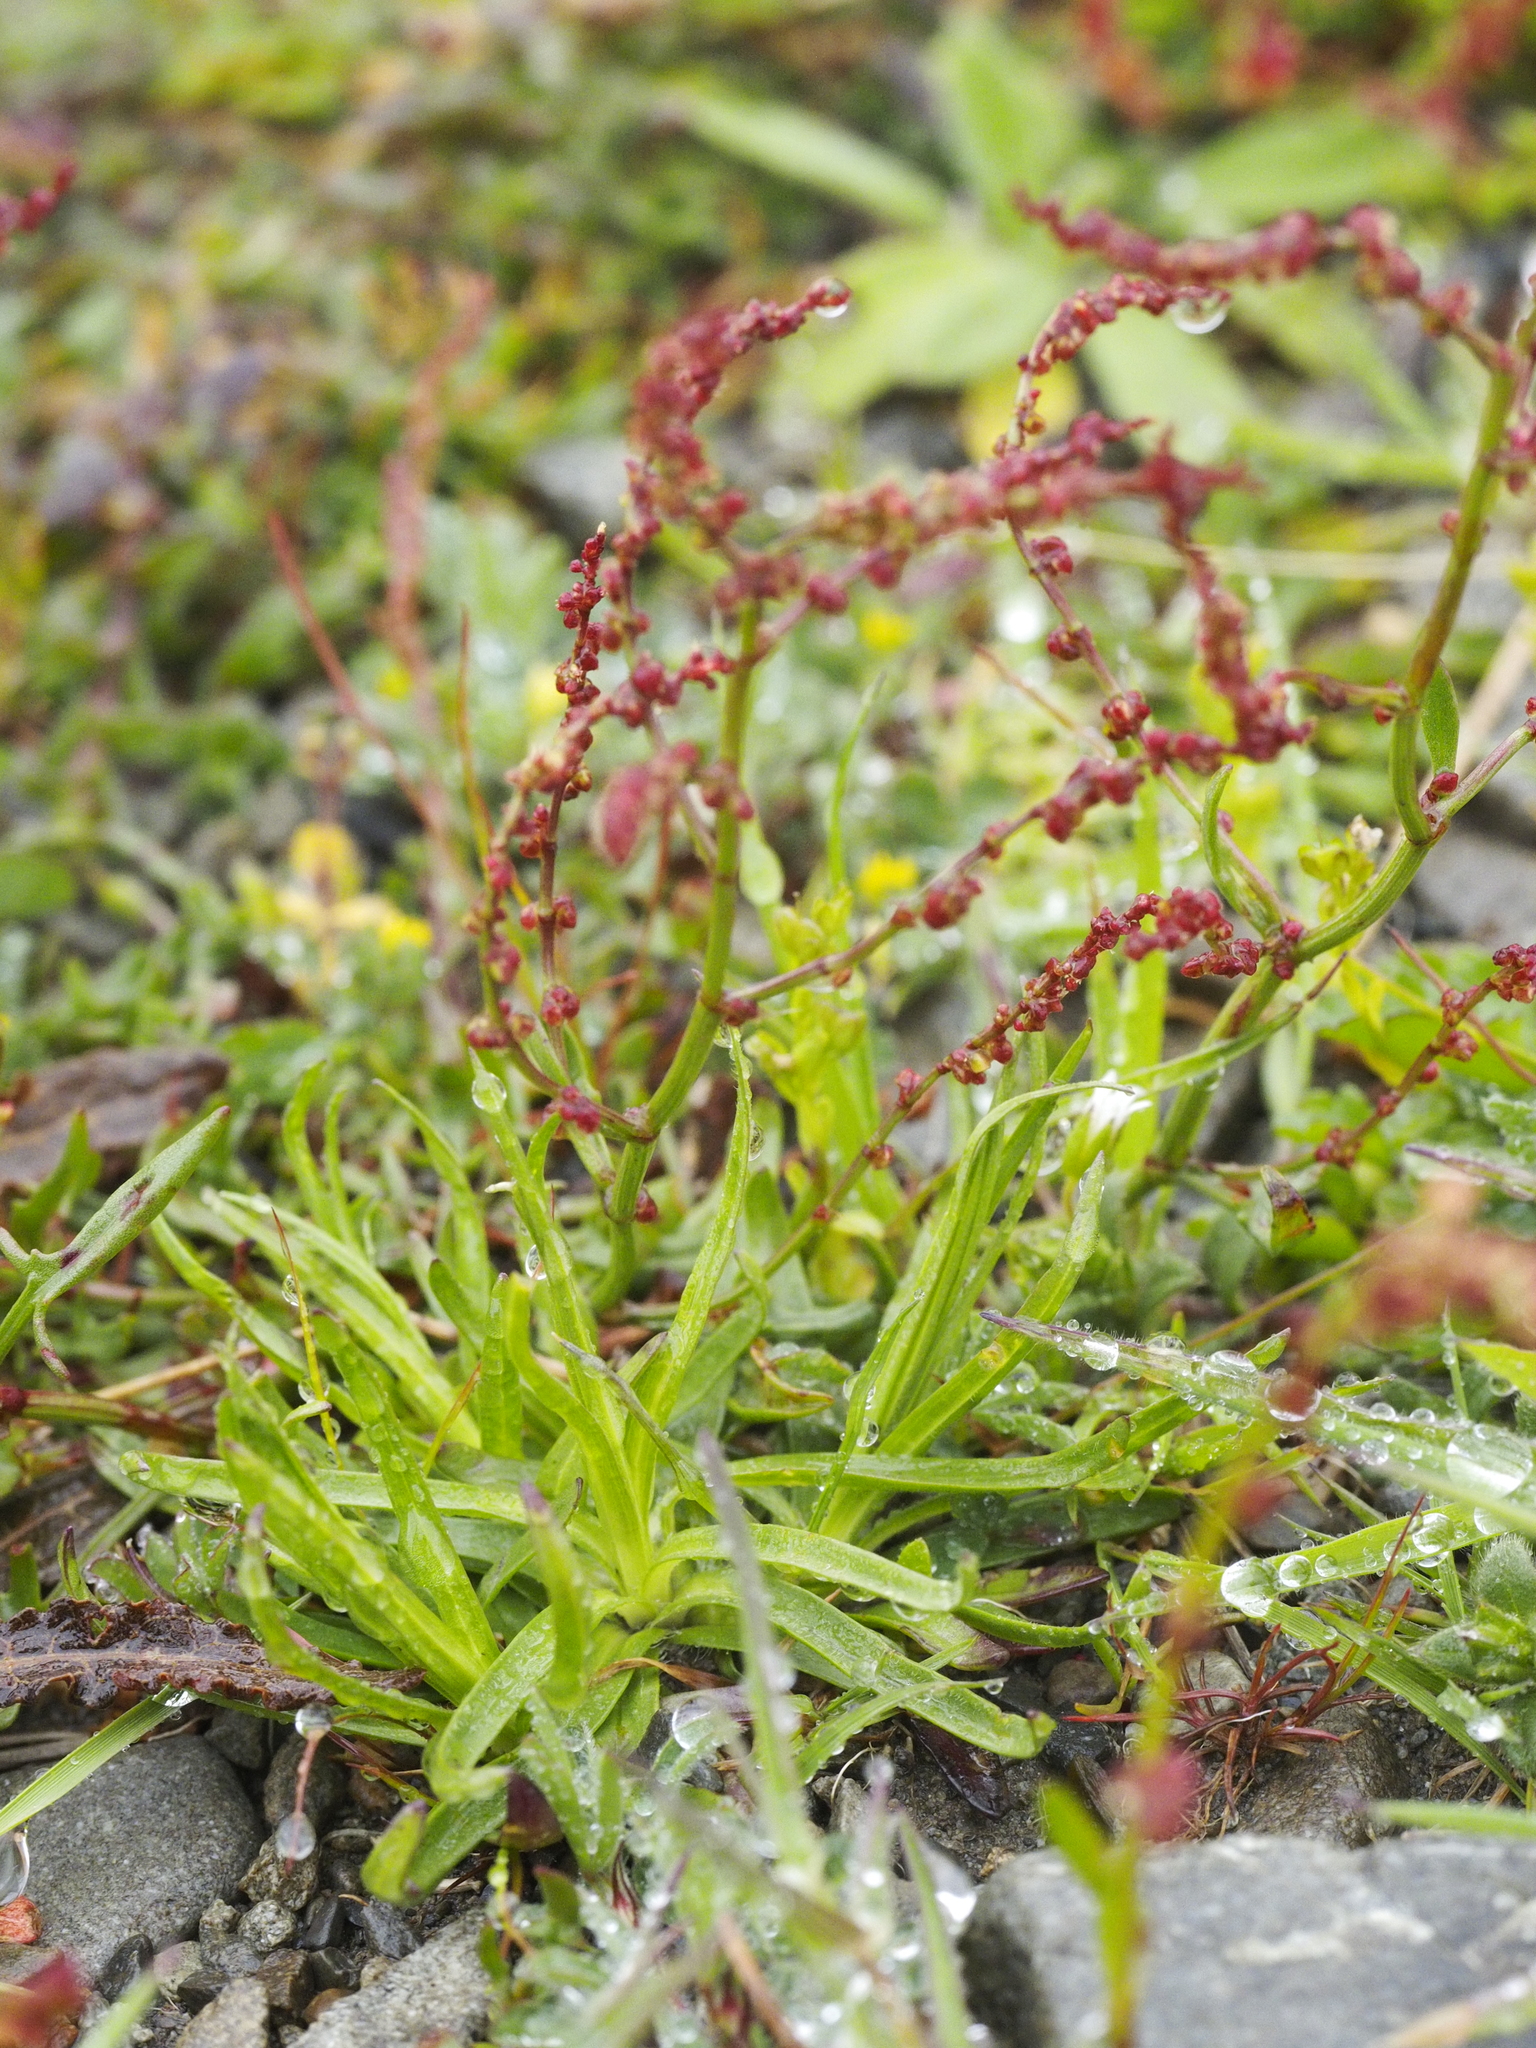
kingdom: Plantae
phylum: Tracheophyta
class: Magnoliopsida
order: Caryophyllales
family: Polygonaceae
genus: Rumex
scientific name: Rumex acetosella
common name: Common sheep sorrel
